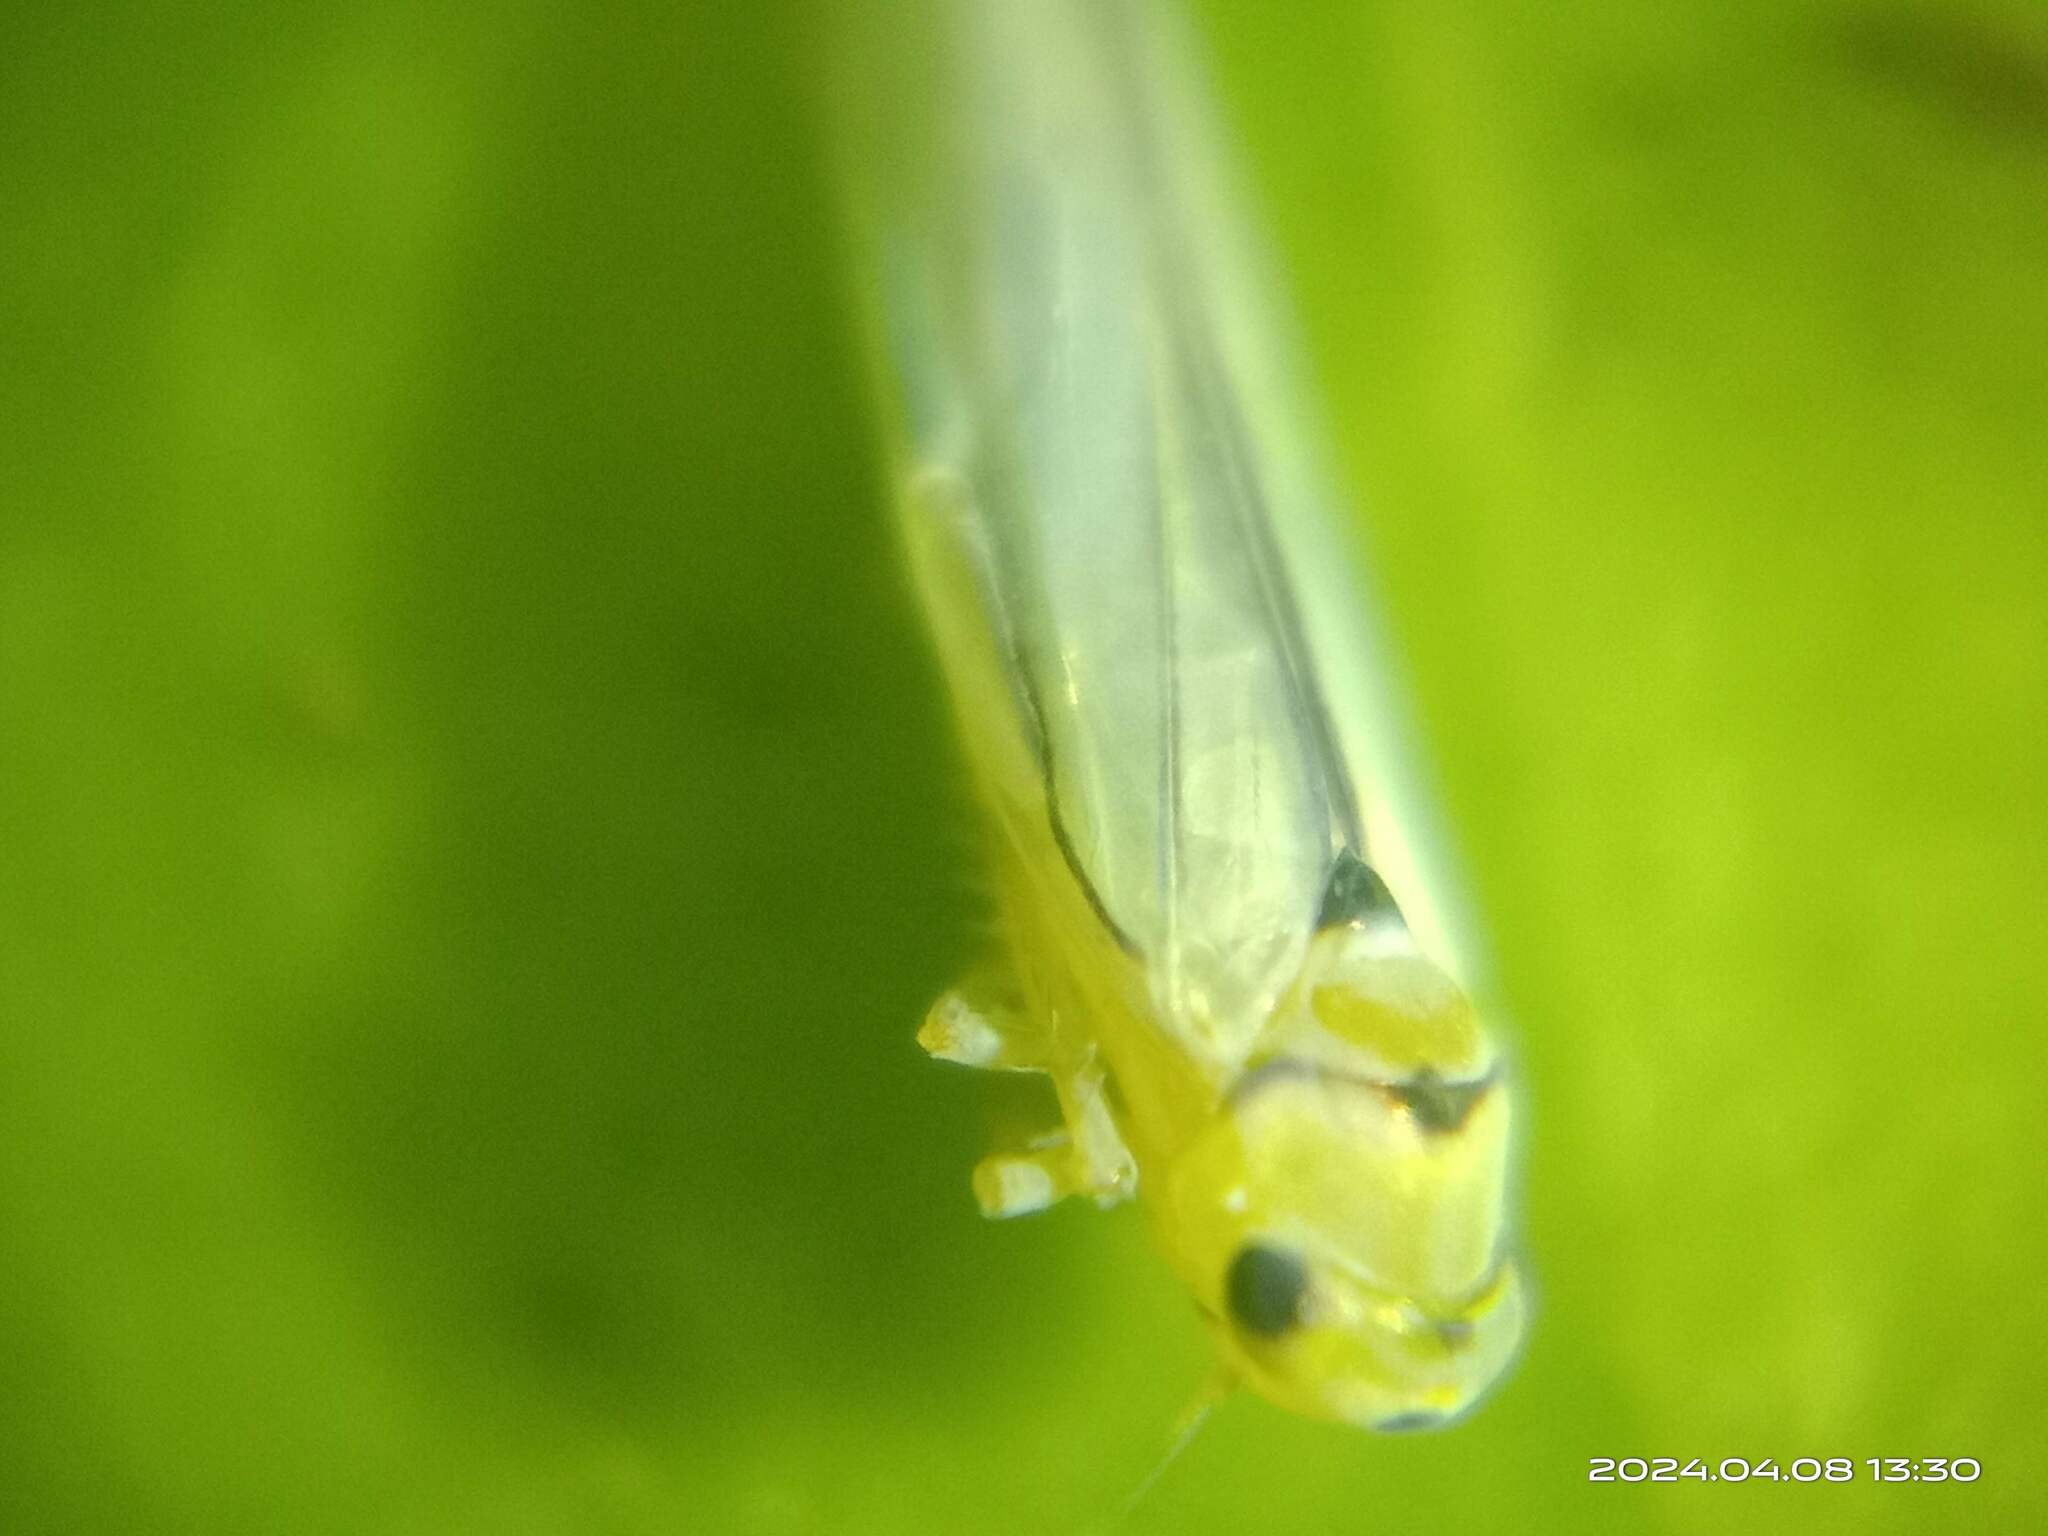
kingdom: Animalia
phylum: Arthropoda
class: Insecta
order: Hemiptera
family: Cicadellidae
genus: Singapora
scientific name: Singapora nigropunctata
